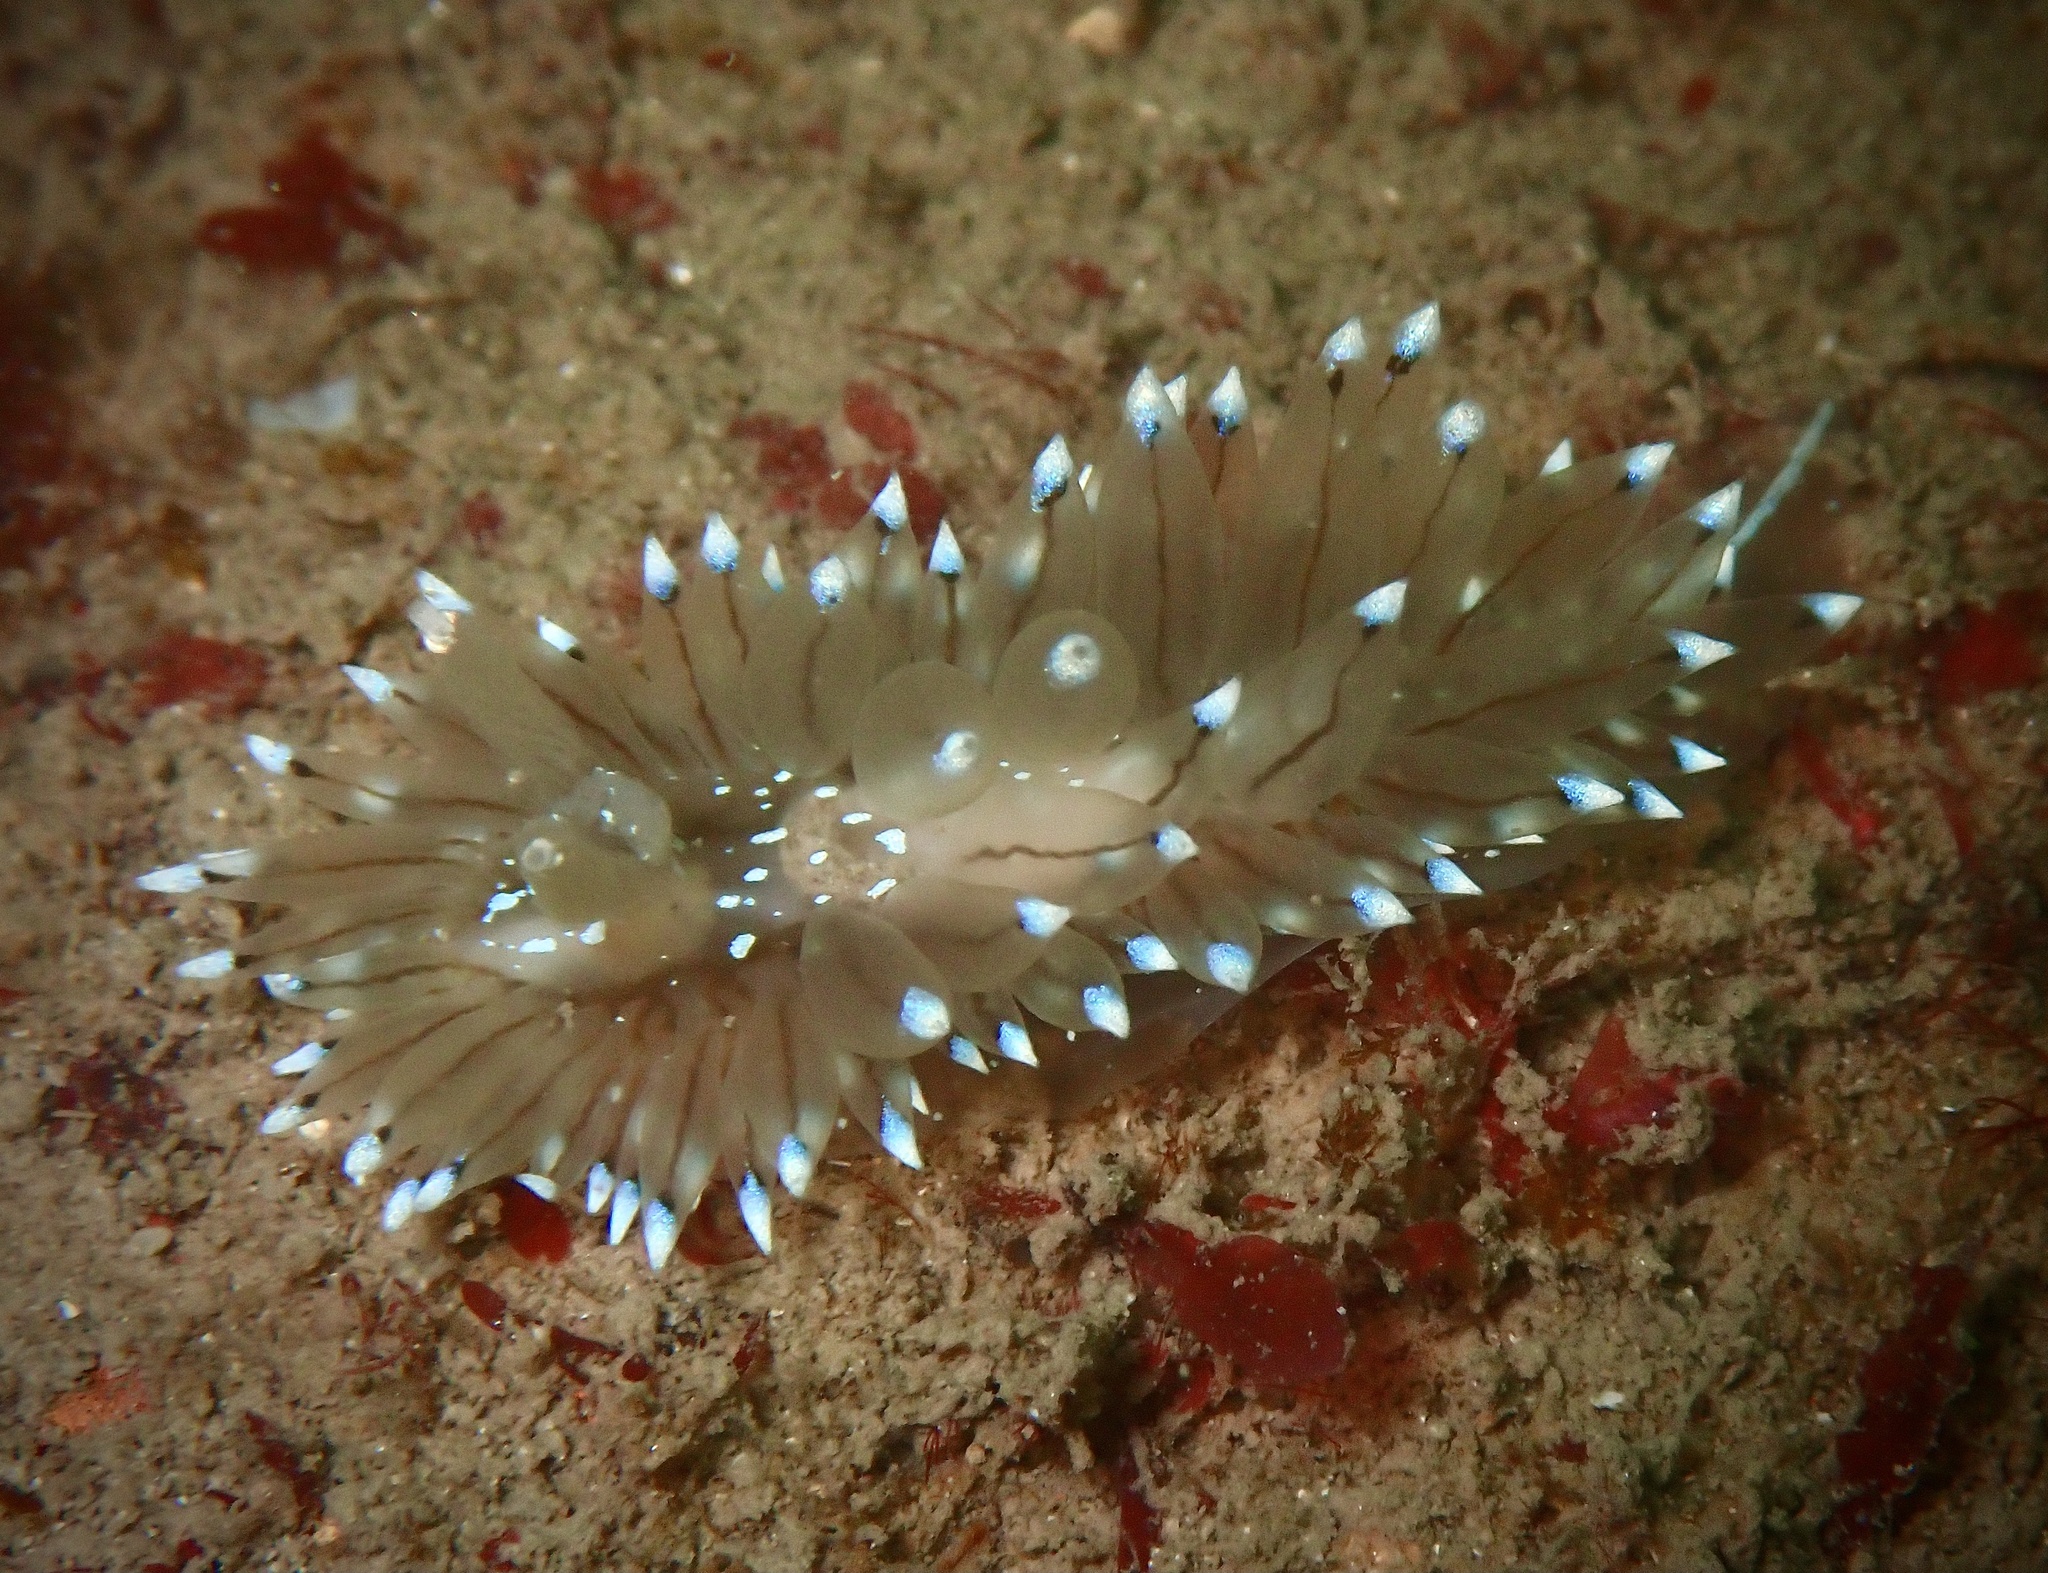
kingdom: Animalia
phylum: Mollusca
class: Gastropoda
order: Nudibranchia
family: Janolidae
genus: Antiopella
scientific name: Antiopella cristata
